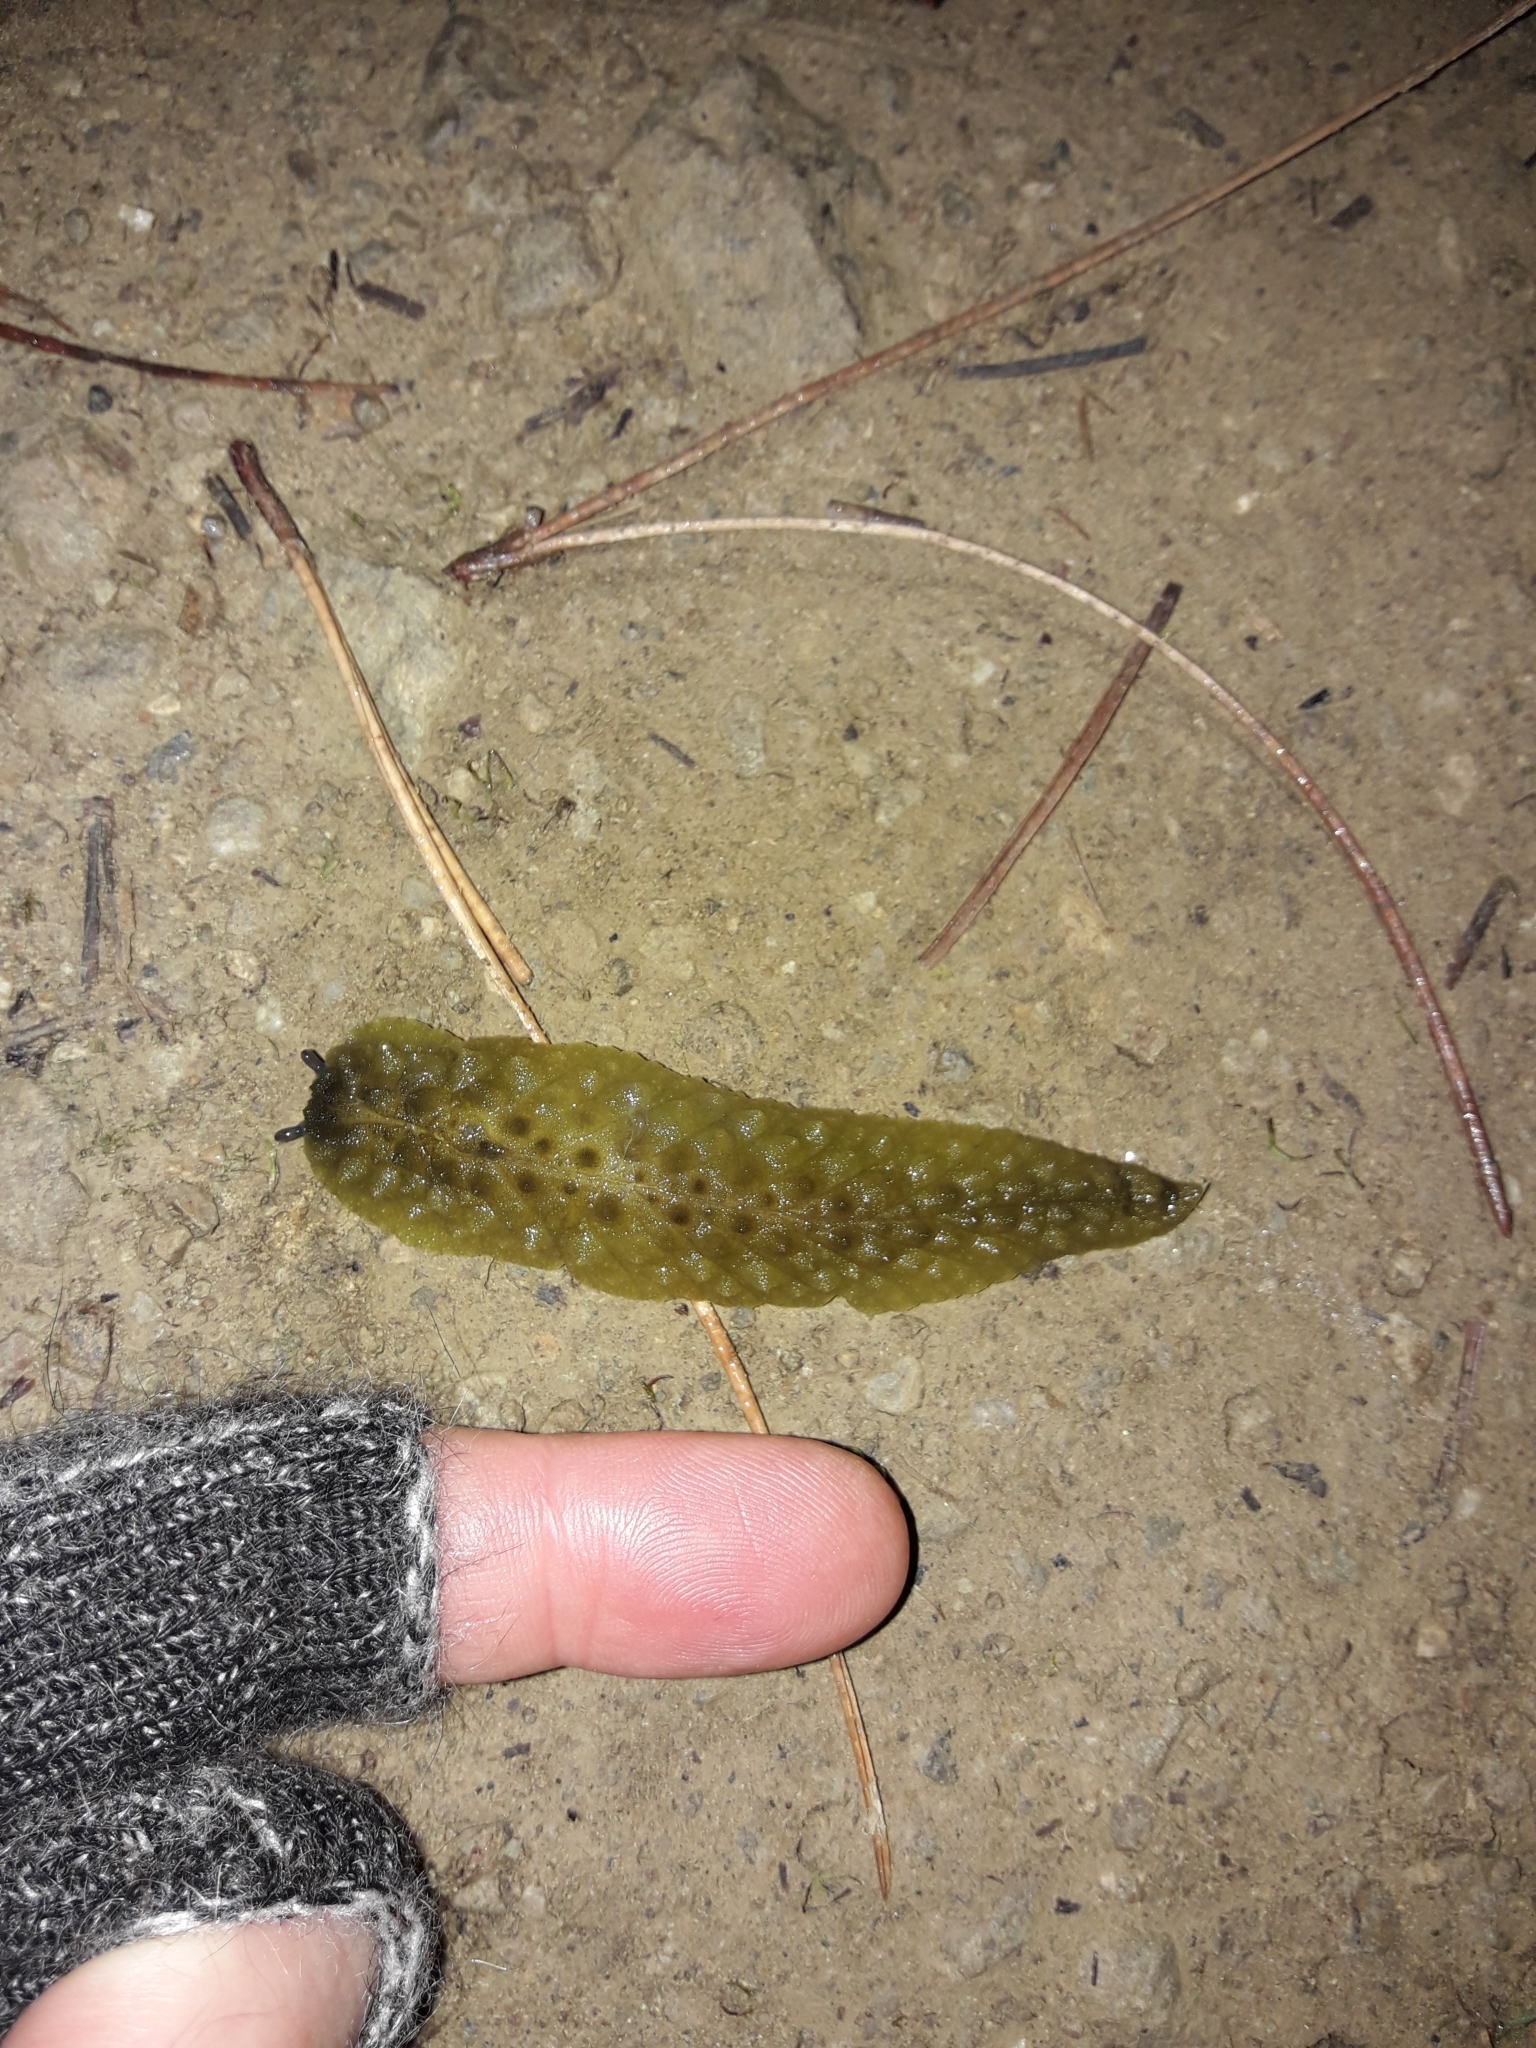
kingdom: Animalia
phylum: Mollusca
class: Gastropoda
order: Stylommatophora
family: Athoracophoridae
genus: Athoracophorus
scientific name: Athoracophorus papillatus
